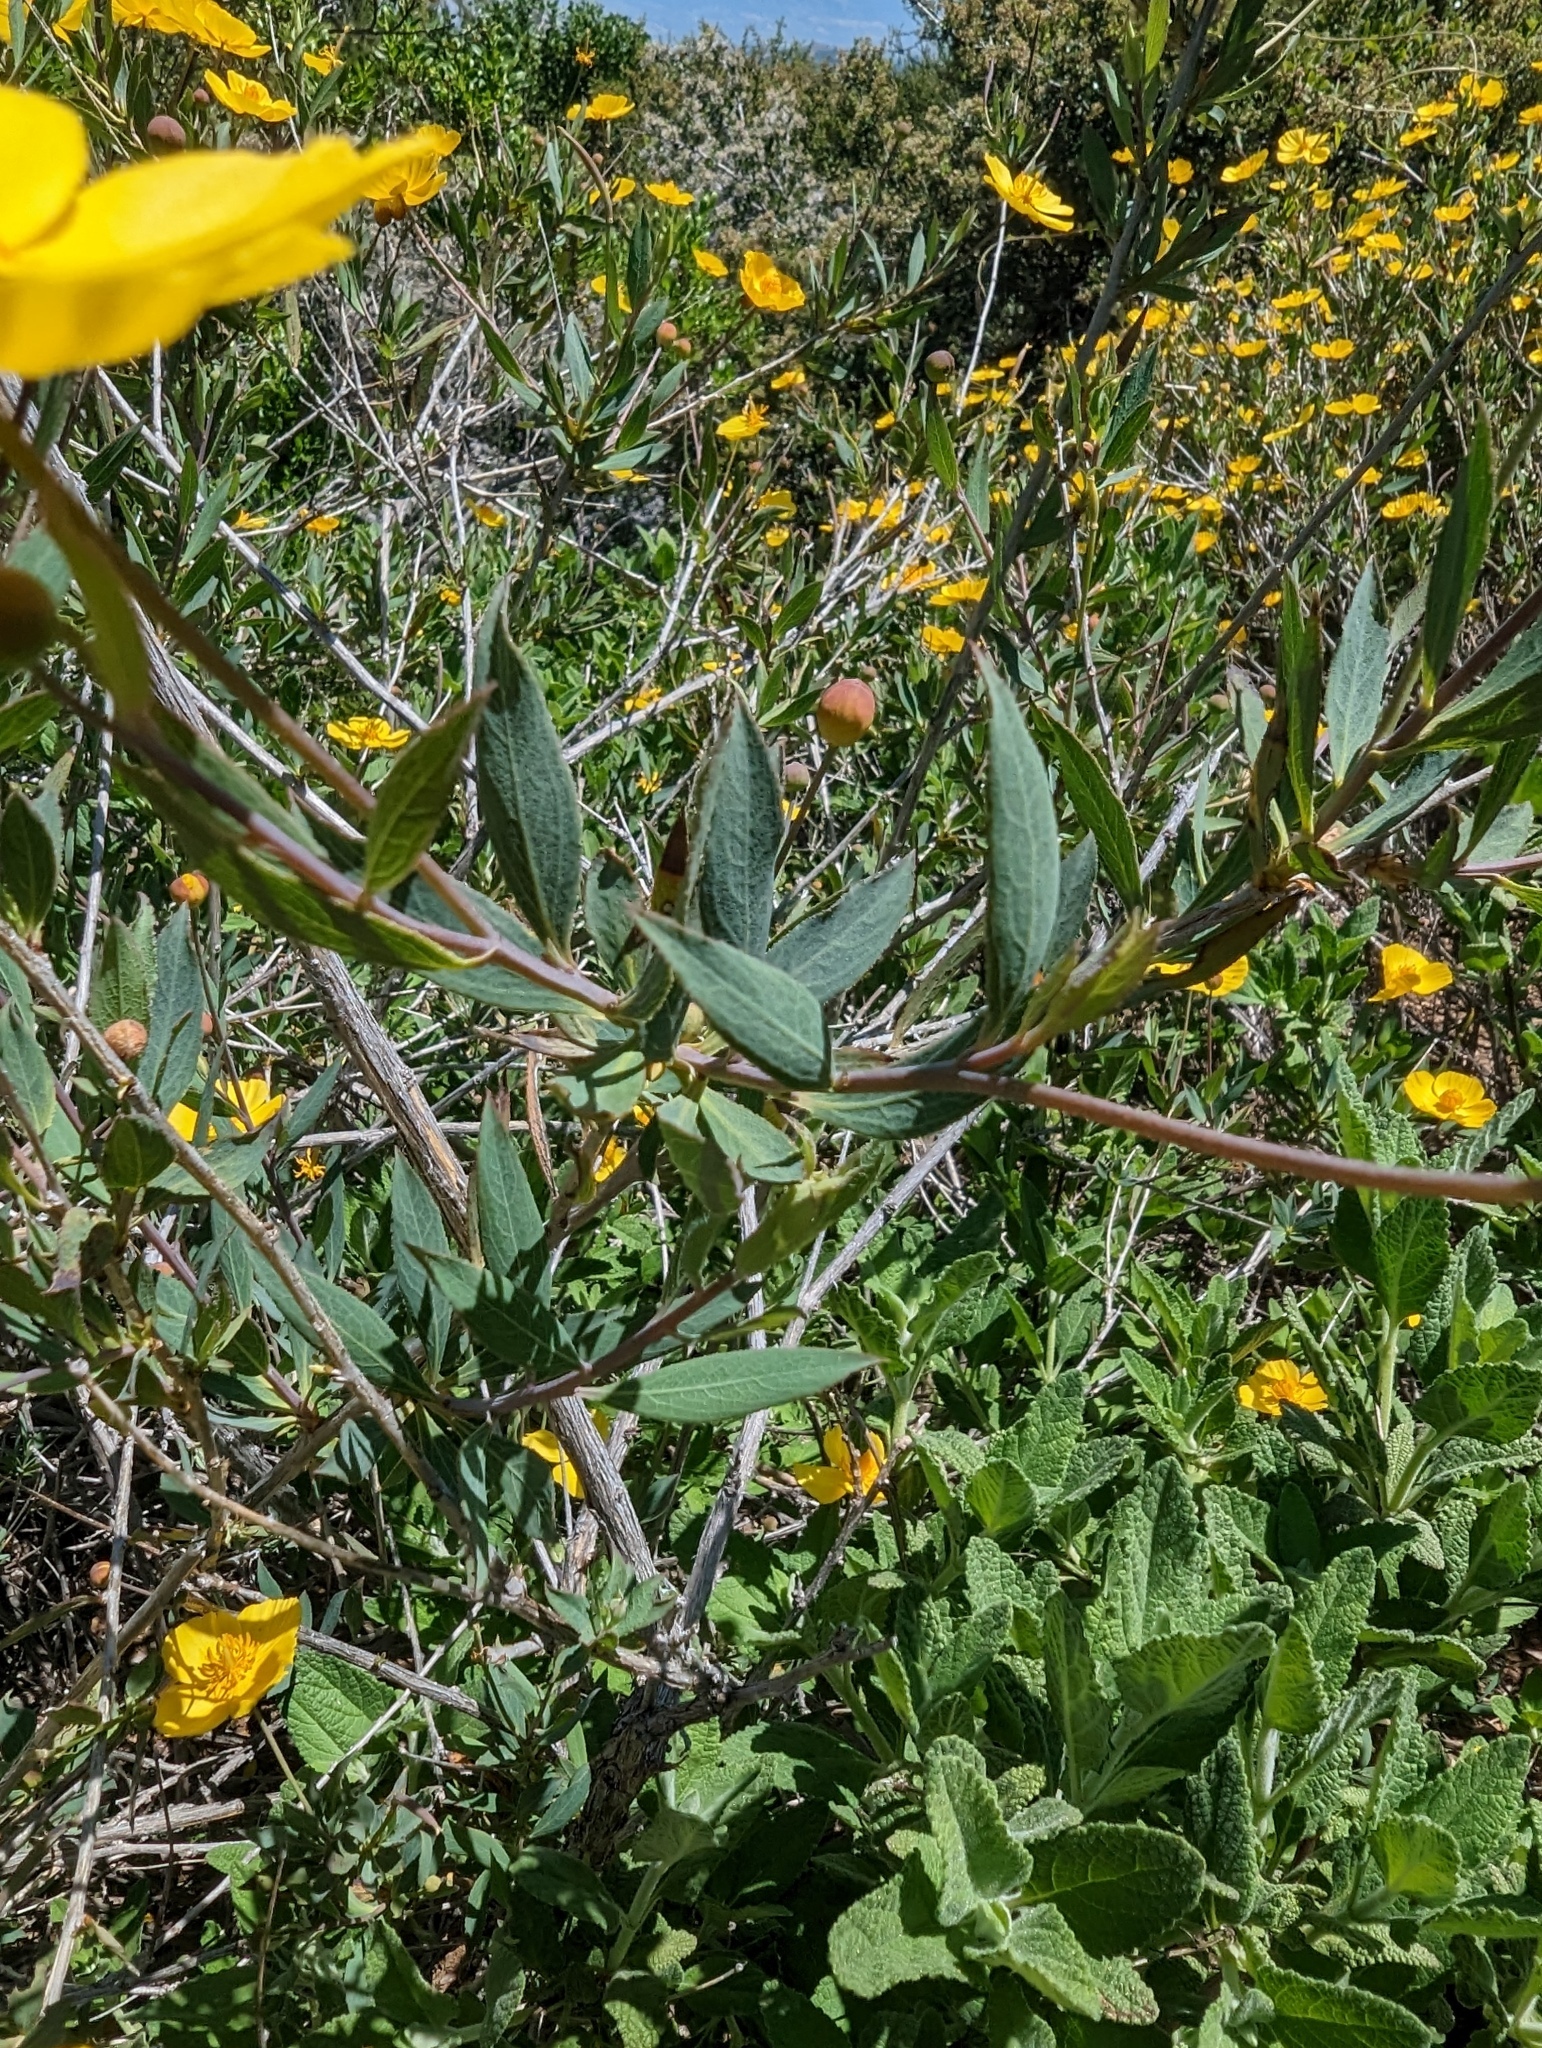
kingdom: Plantae
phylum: Tracheophyta
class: Magnoliopsida
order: Ranunculales
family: Papaveraceae
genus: Dendromecon
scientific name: Dendromecon rigida
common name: Tree poppy
